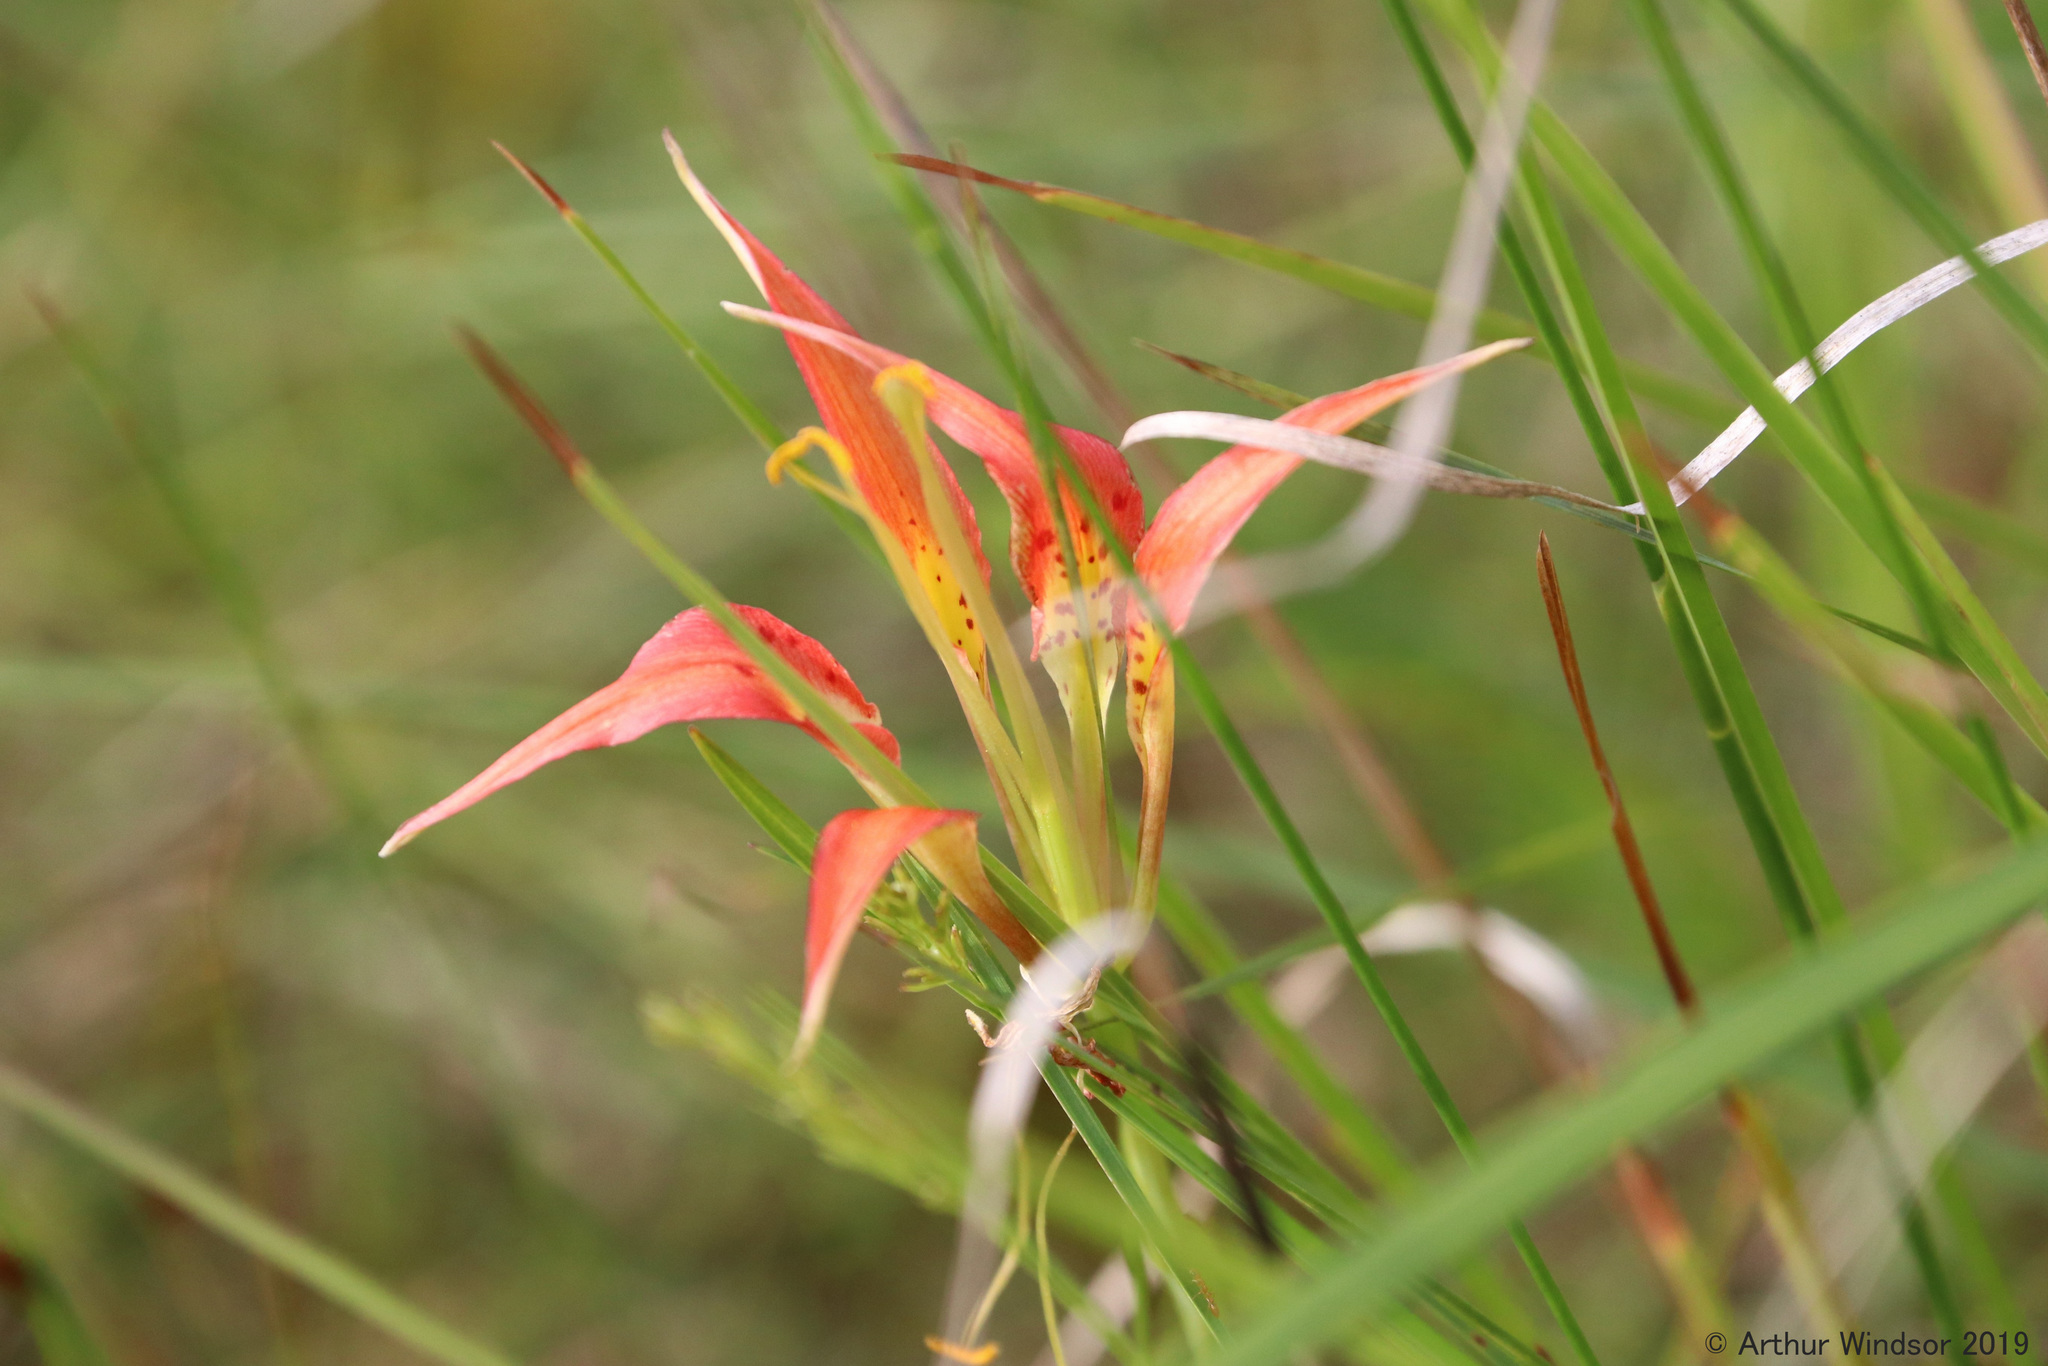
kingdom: Plantae
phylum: Tracheophyta
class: Liliopsida
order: Liliales
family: Liliaceae
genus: Lilium
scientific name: Lilium catesbaei
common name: Catesby's lily
